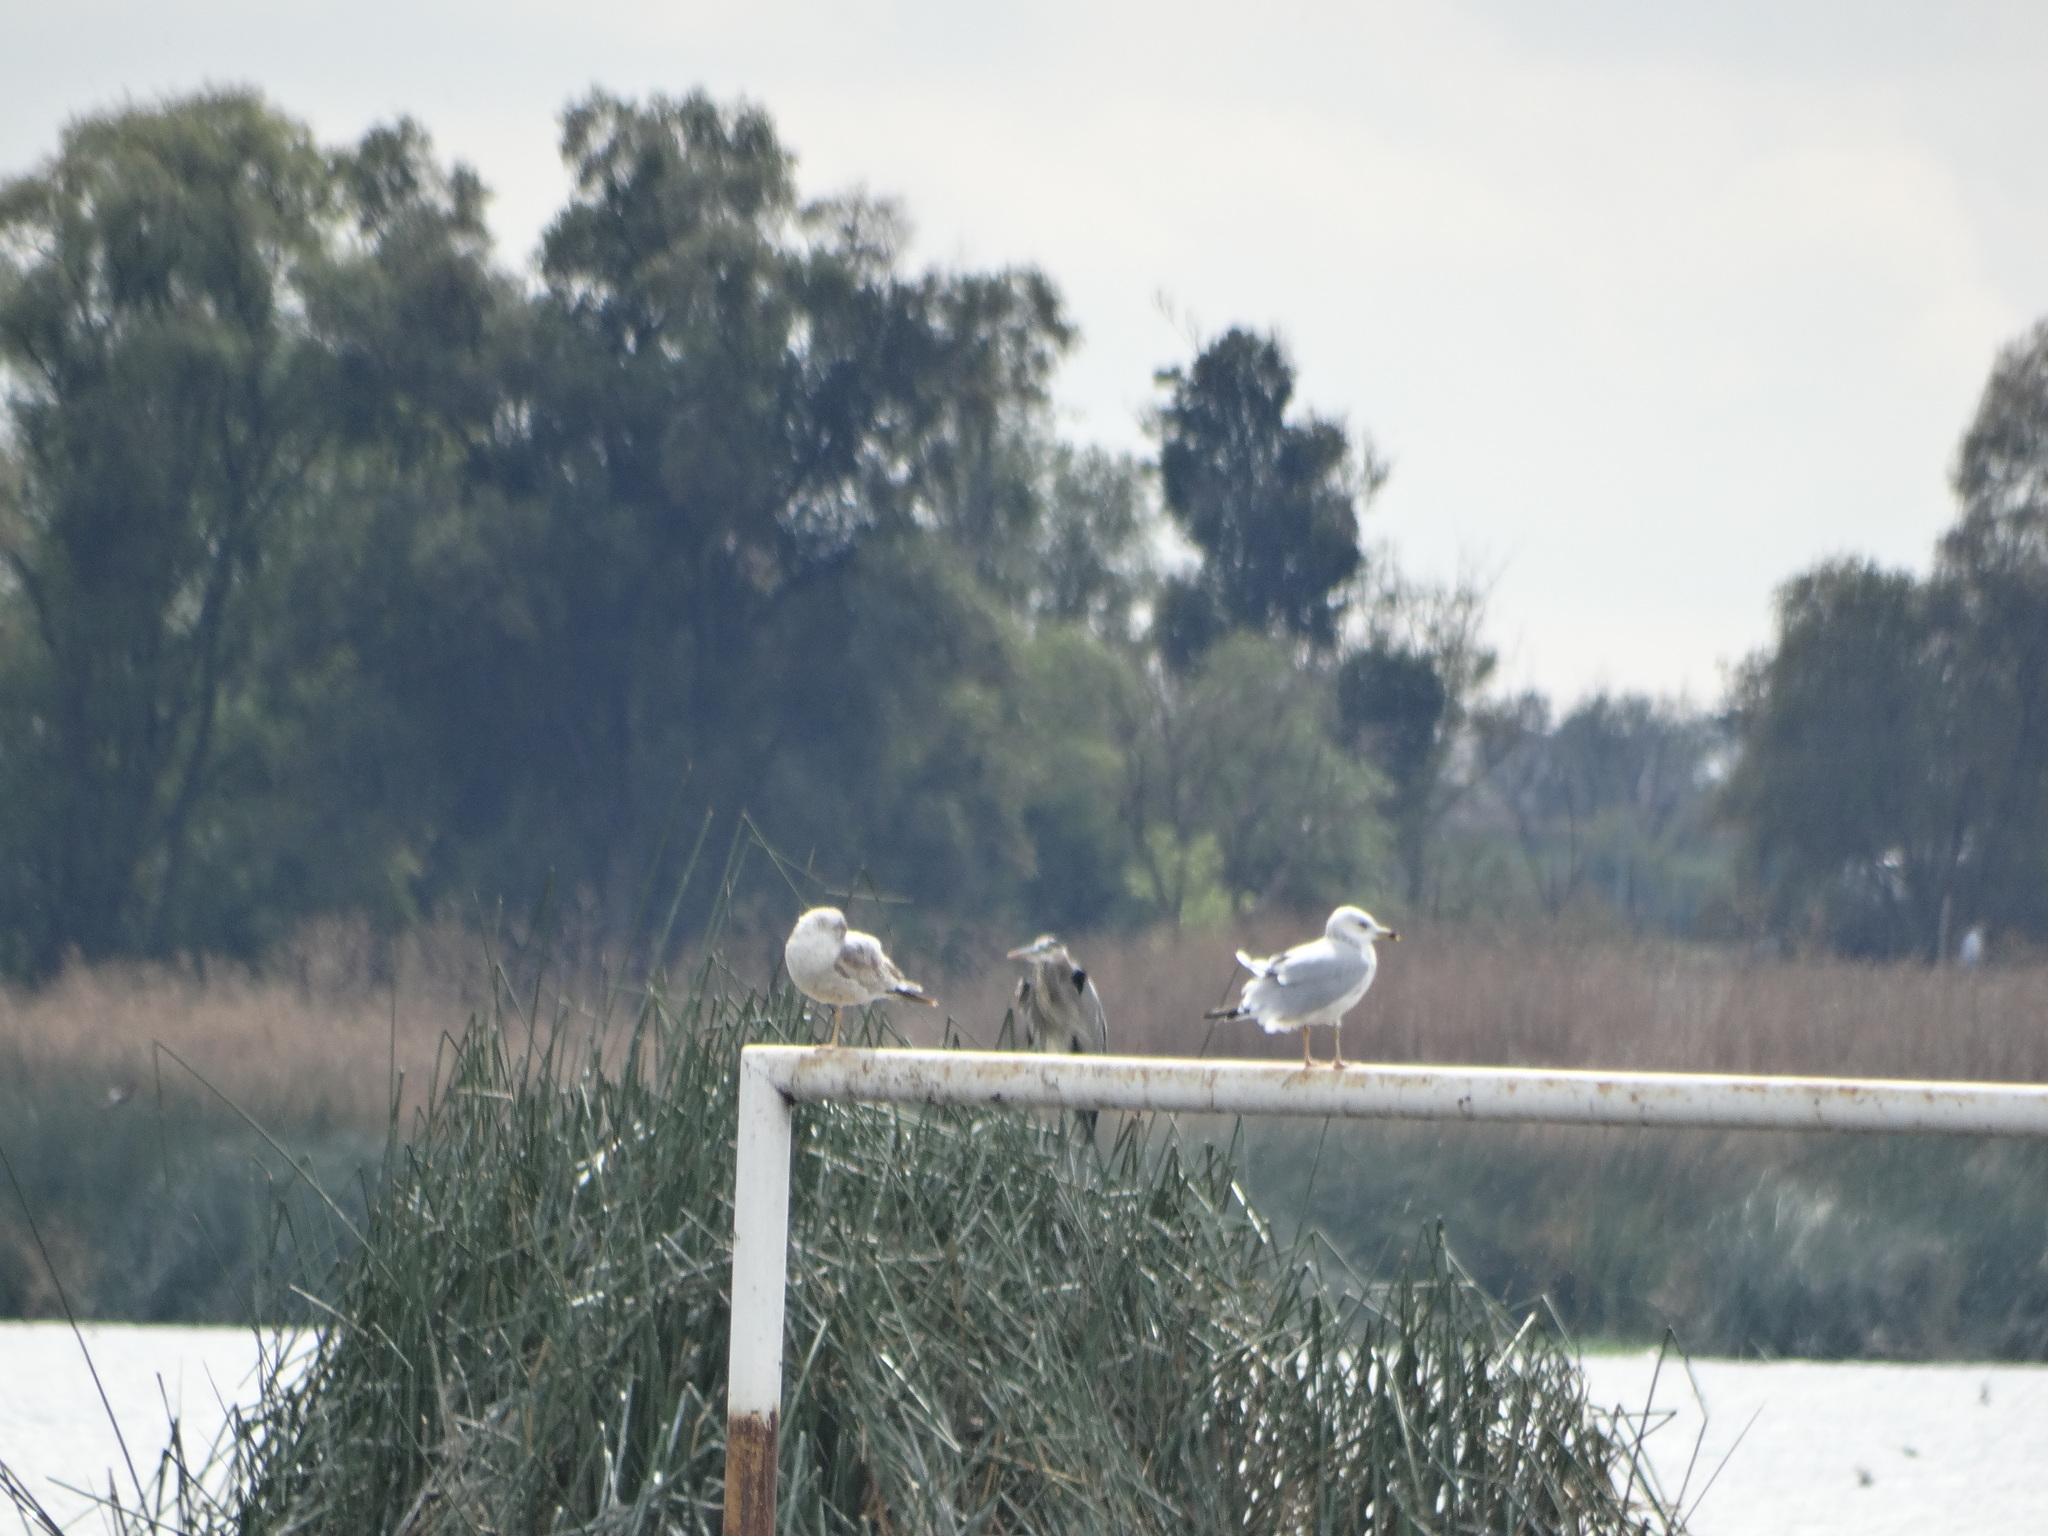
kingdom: Animalia
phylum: Chordata
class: Aves
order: Charadriiformes
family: Laridae
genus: Larus
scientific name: Larus delawarensis
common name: Ring-billed gull
